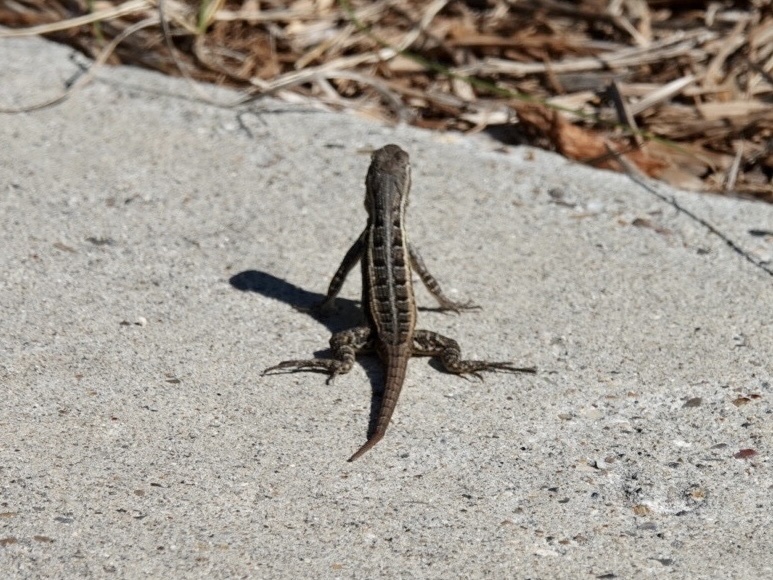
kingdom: Animalia
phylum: Chordata
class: Squamata
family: Phrynosomatidae
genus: Sceloporus
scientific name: Sceloporus variabilis
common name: Rosebelly lizard
